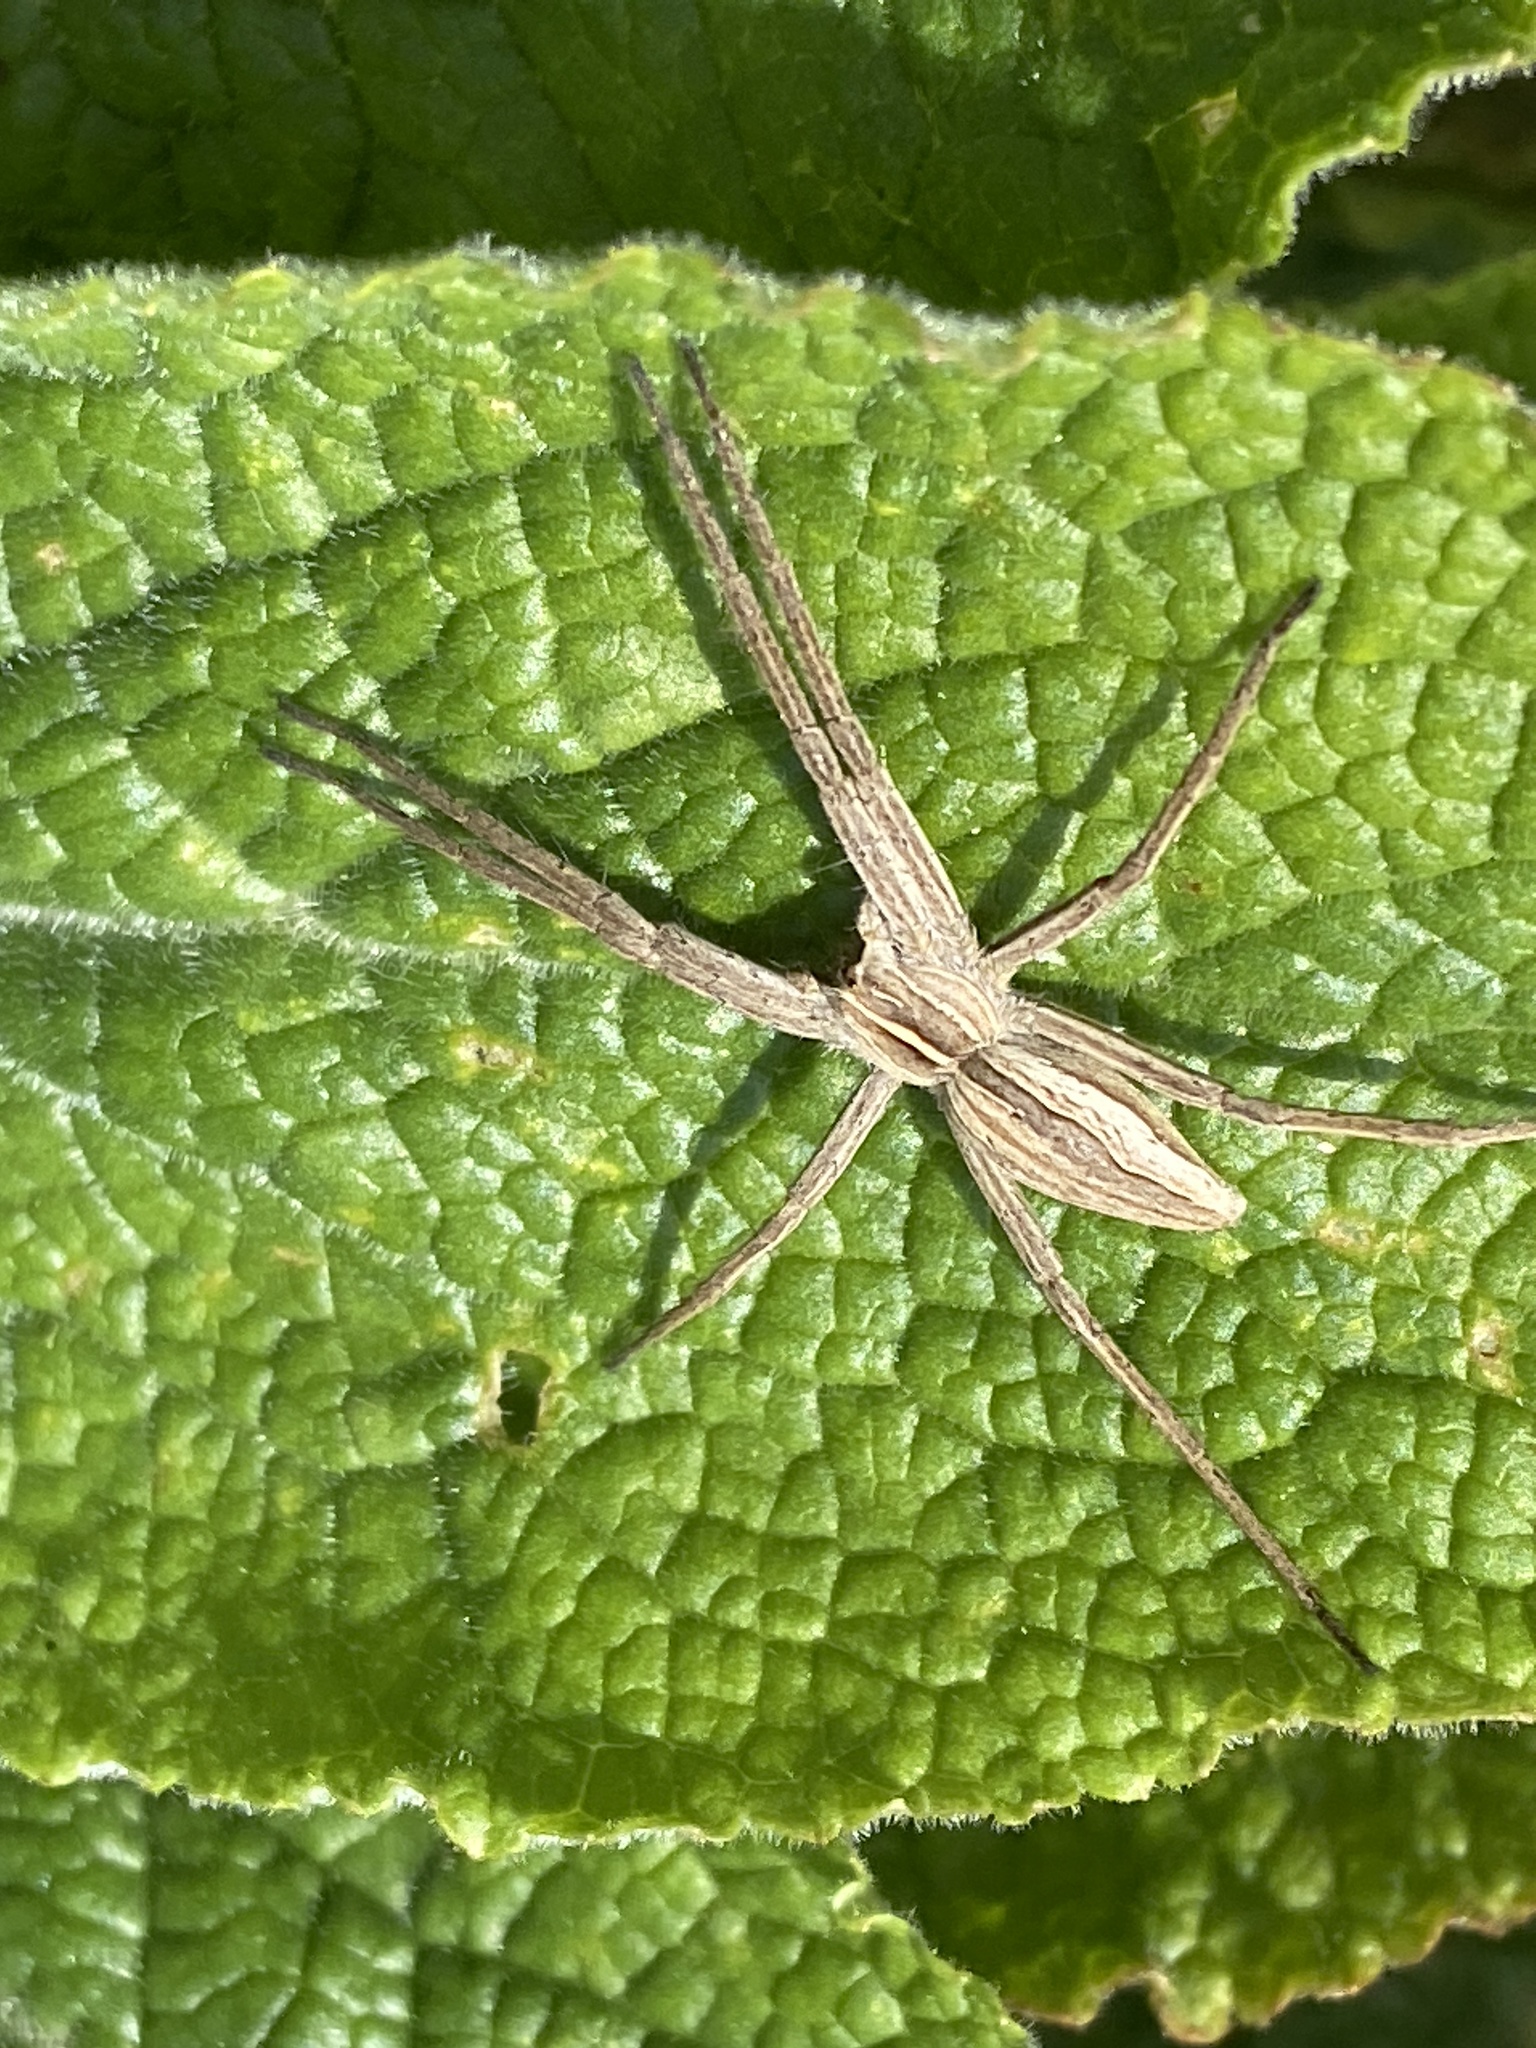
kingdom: Animalia
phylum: Arthropoda
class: Arachnida
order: Araneae
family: Pisauridae
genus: Pisaura
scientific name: Pisaura mirabilis
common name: Tent spider
